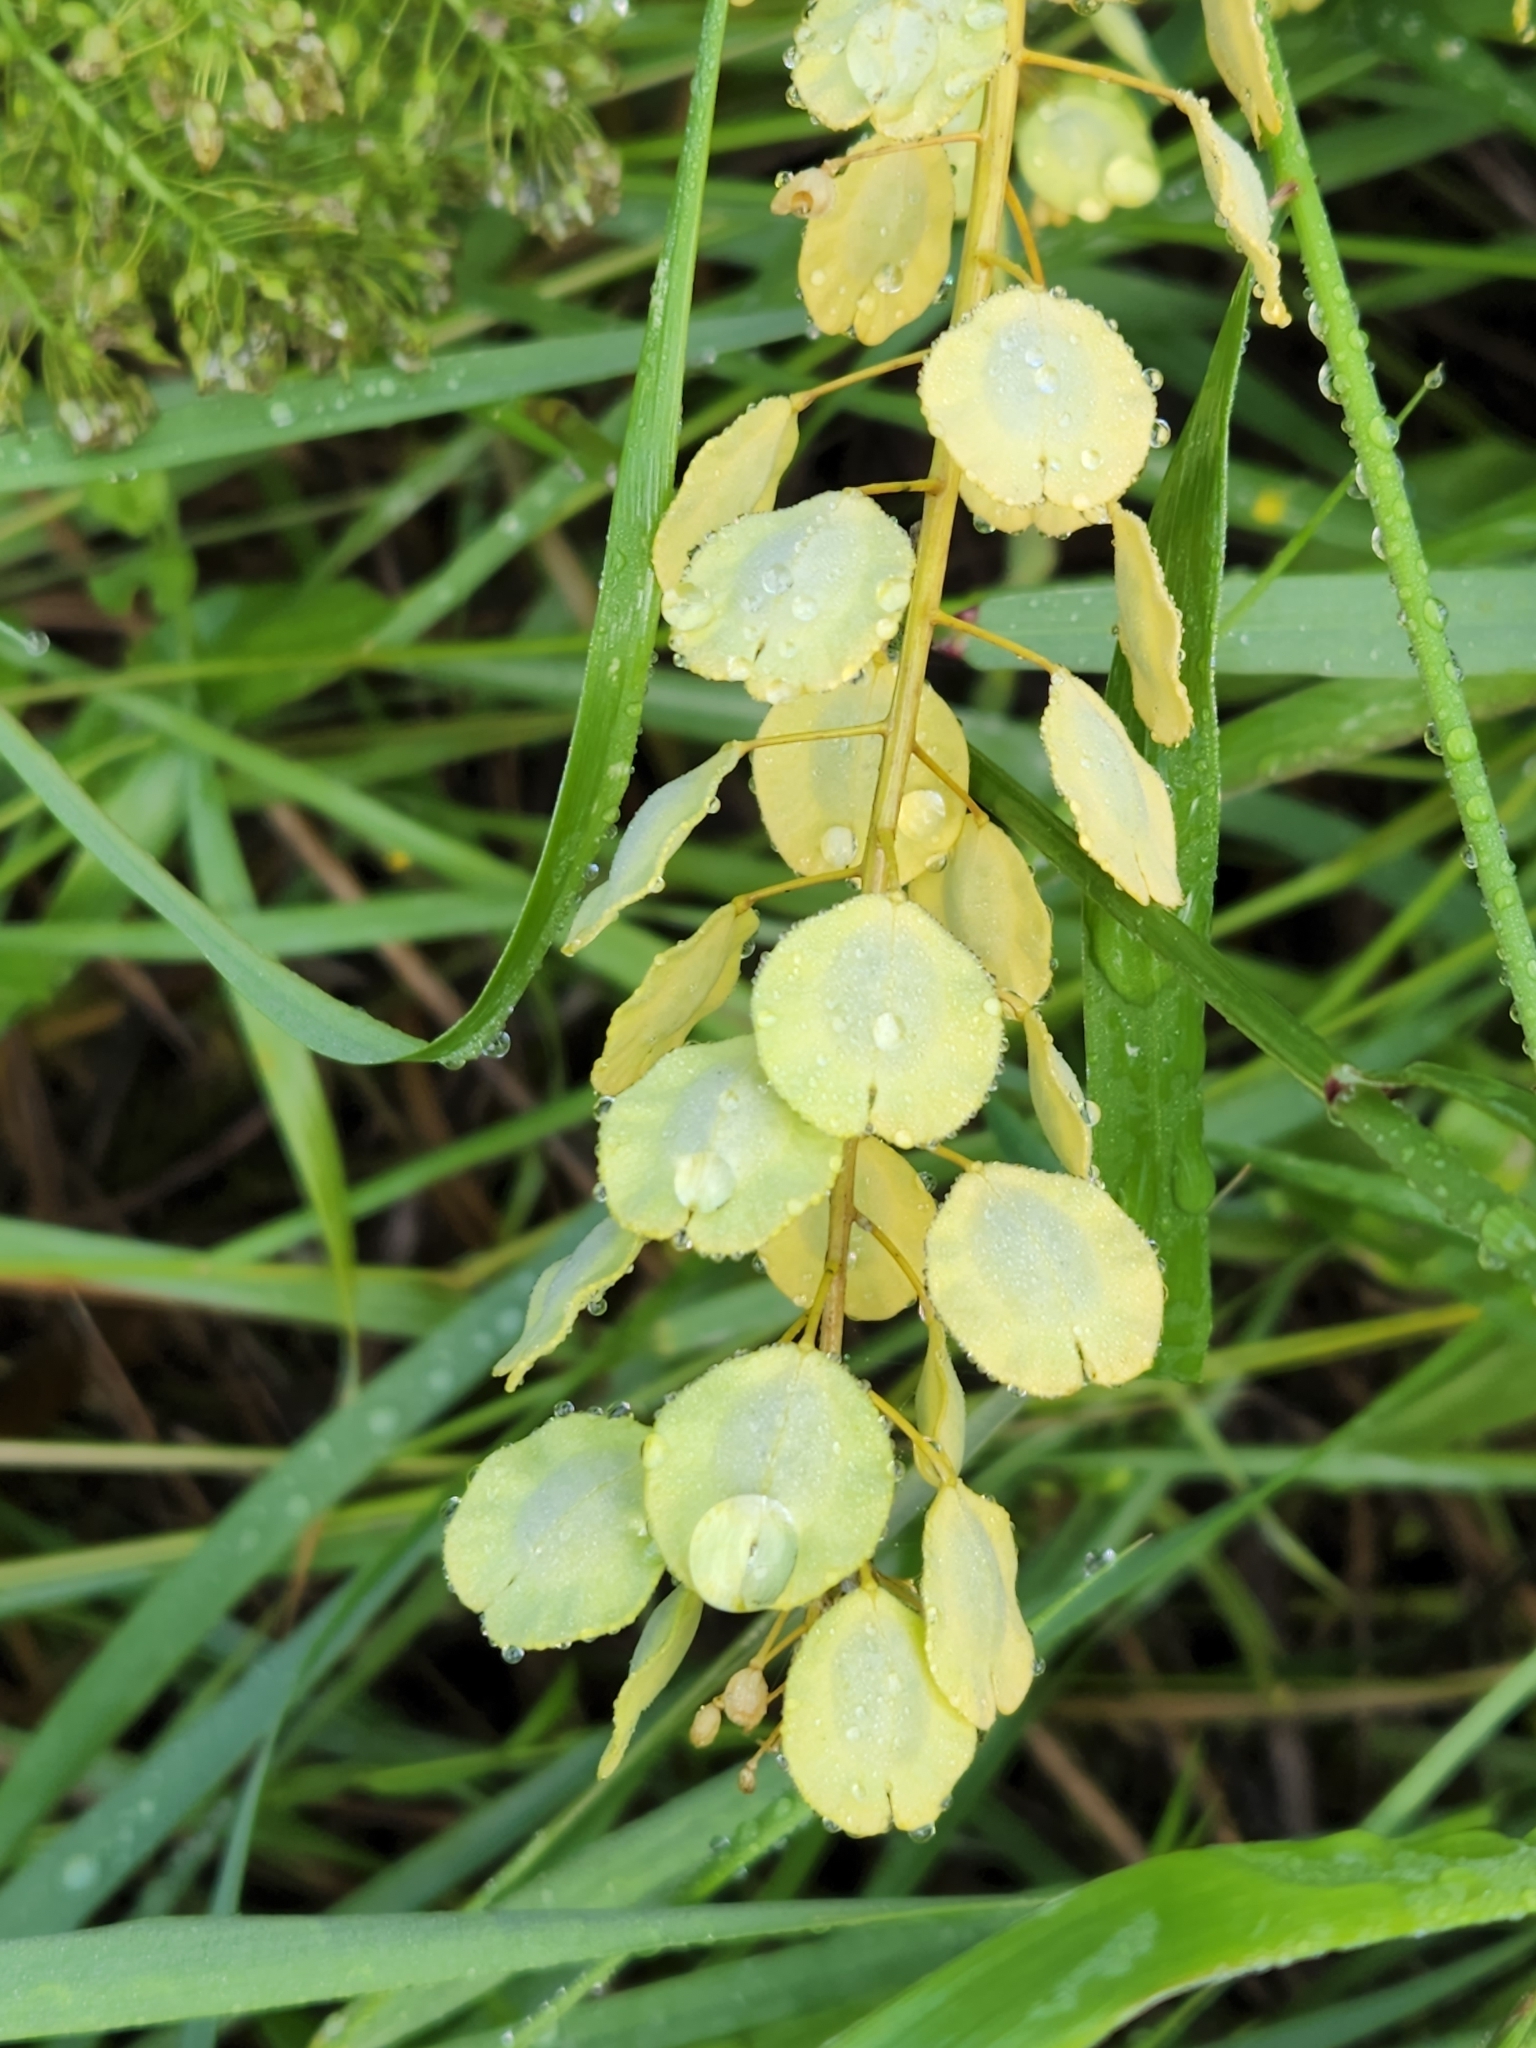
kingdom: Plantae
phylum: Tracheophyta
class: Magnoliopsida
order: Brassicales
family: Brassicaceae
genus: Thlaspi
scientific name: Thlaspi arvense
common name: Field pennycress
